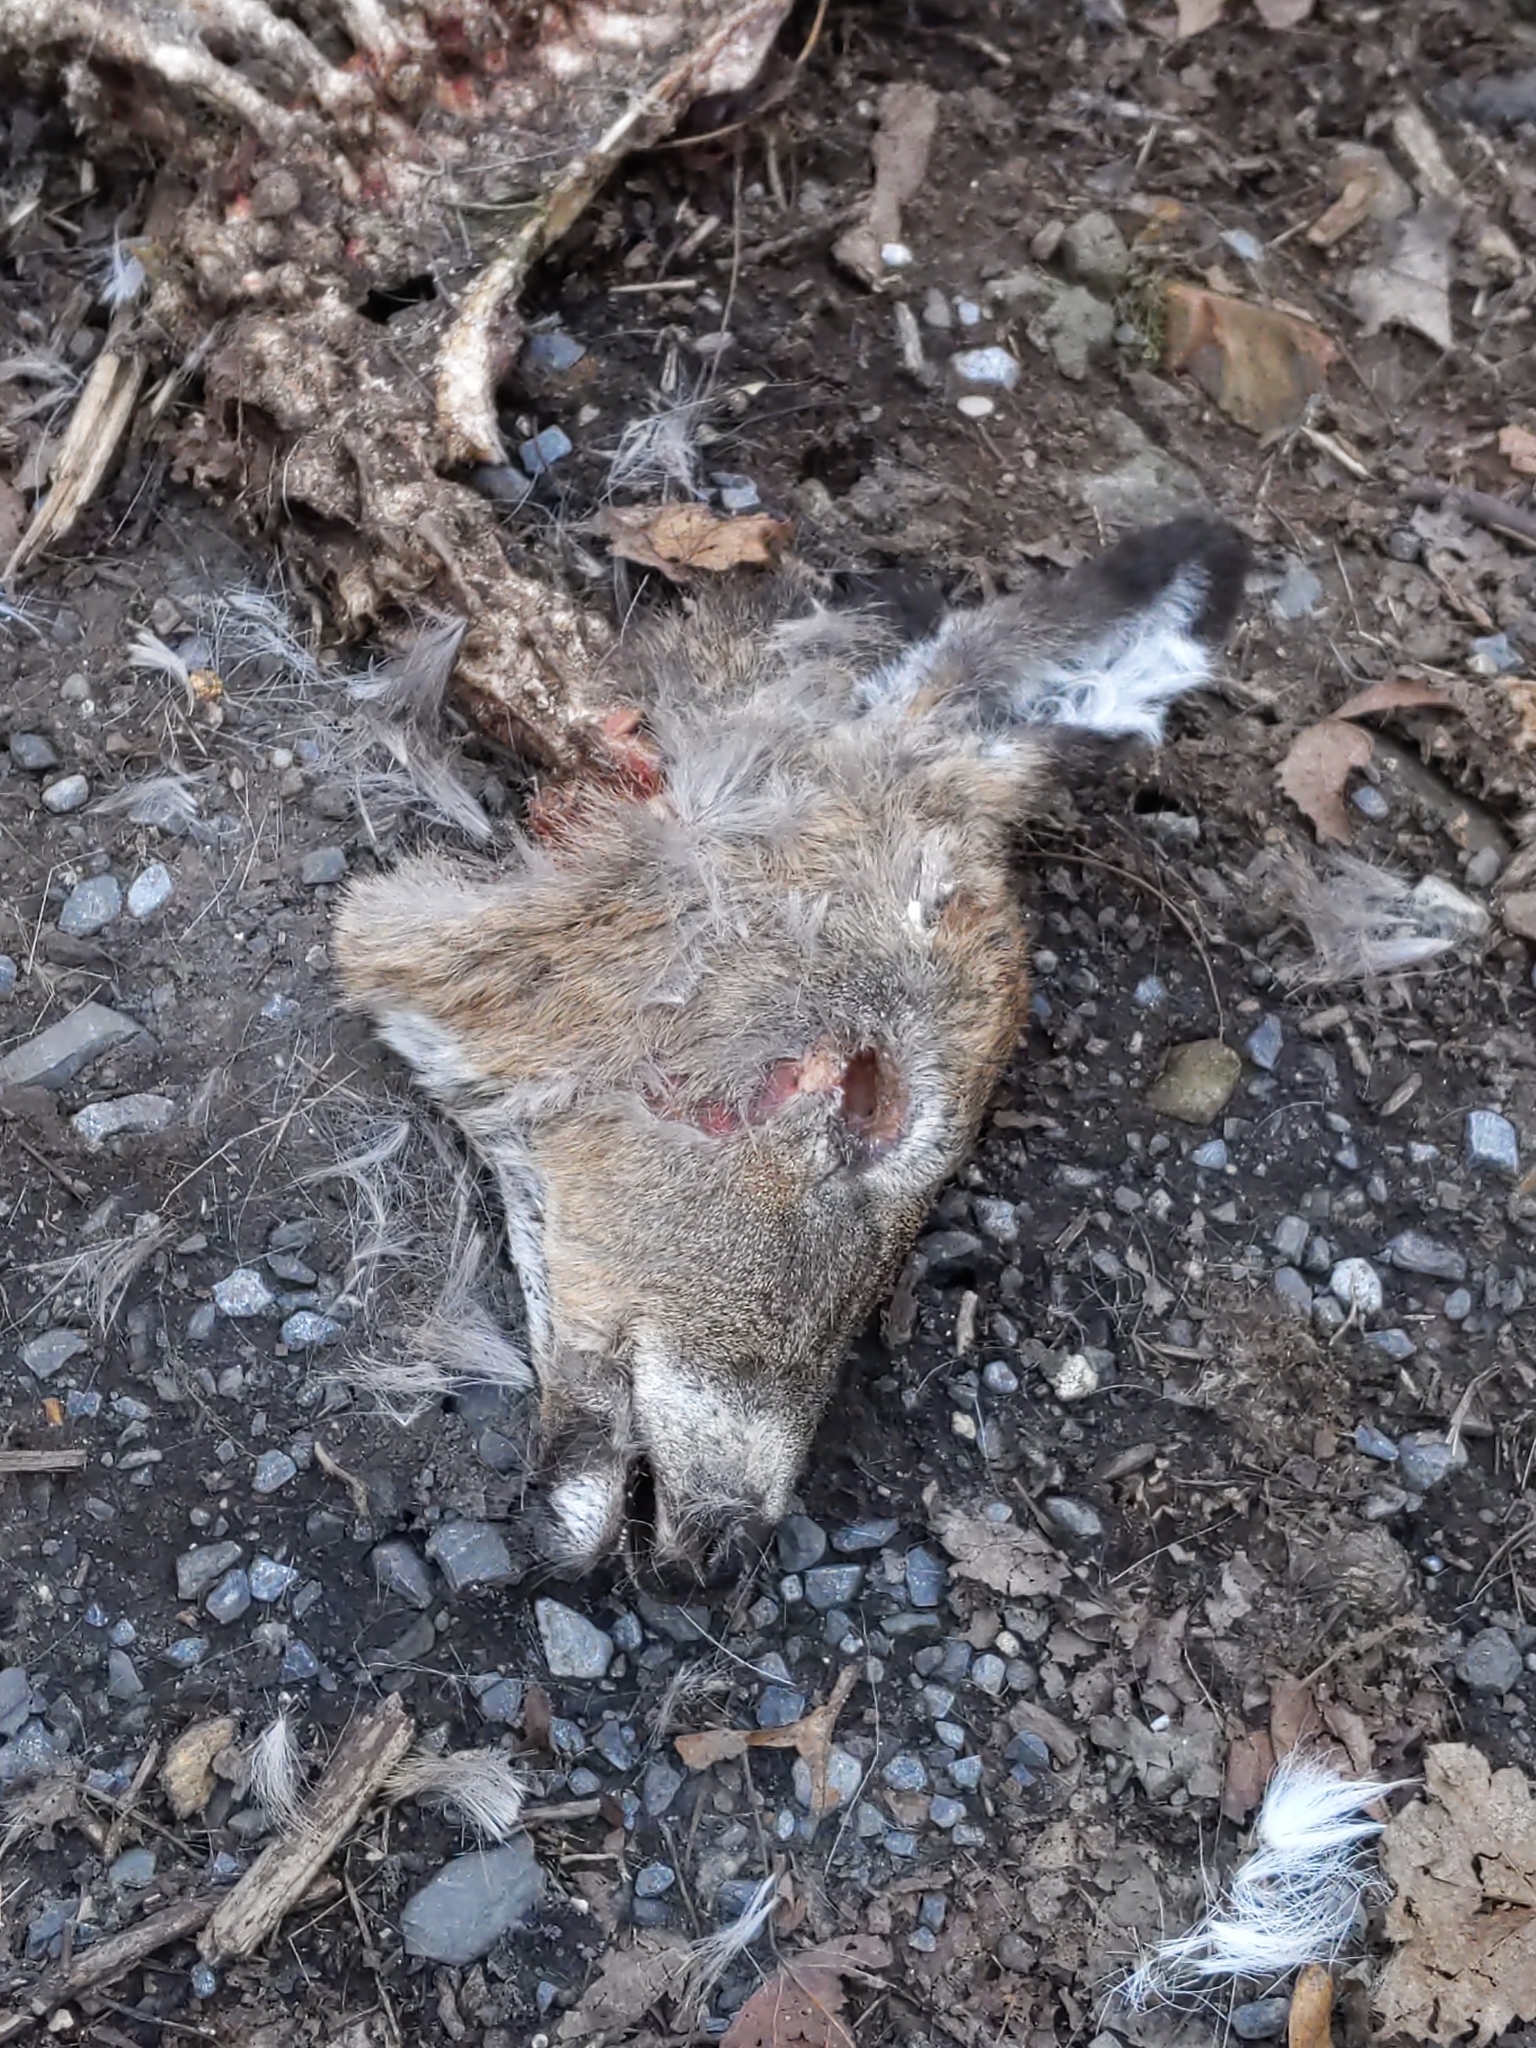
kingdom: Animalia
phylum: Chordata
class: Mammalia
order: Artiodactyla
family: Cervidae
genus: Odocoileus
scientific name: Odocoileus virginianus
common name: White-tailed deer
